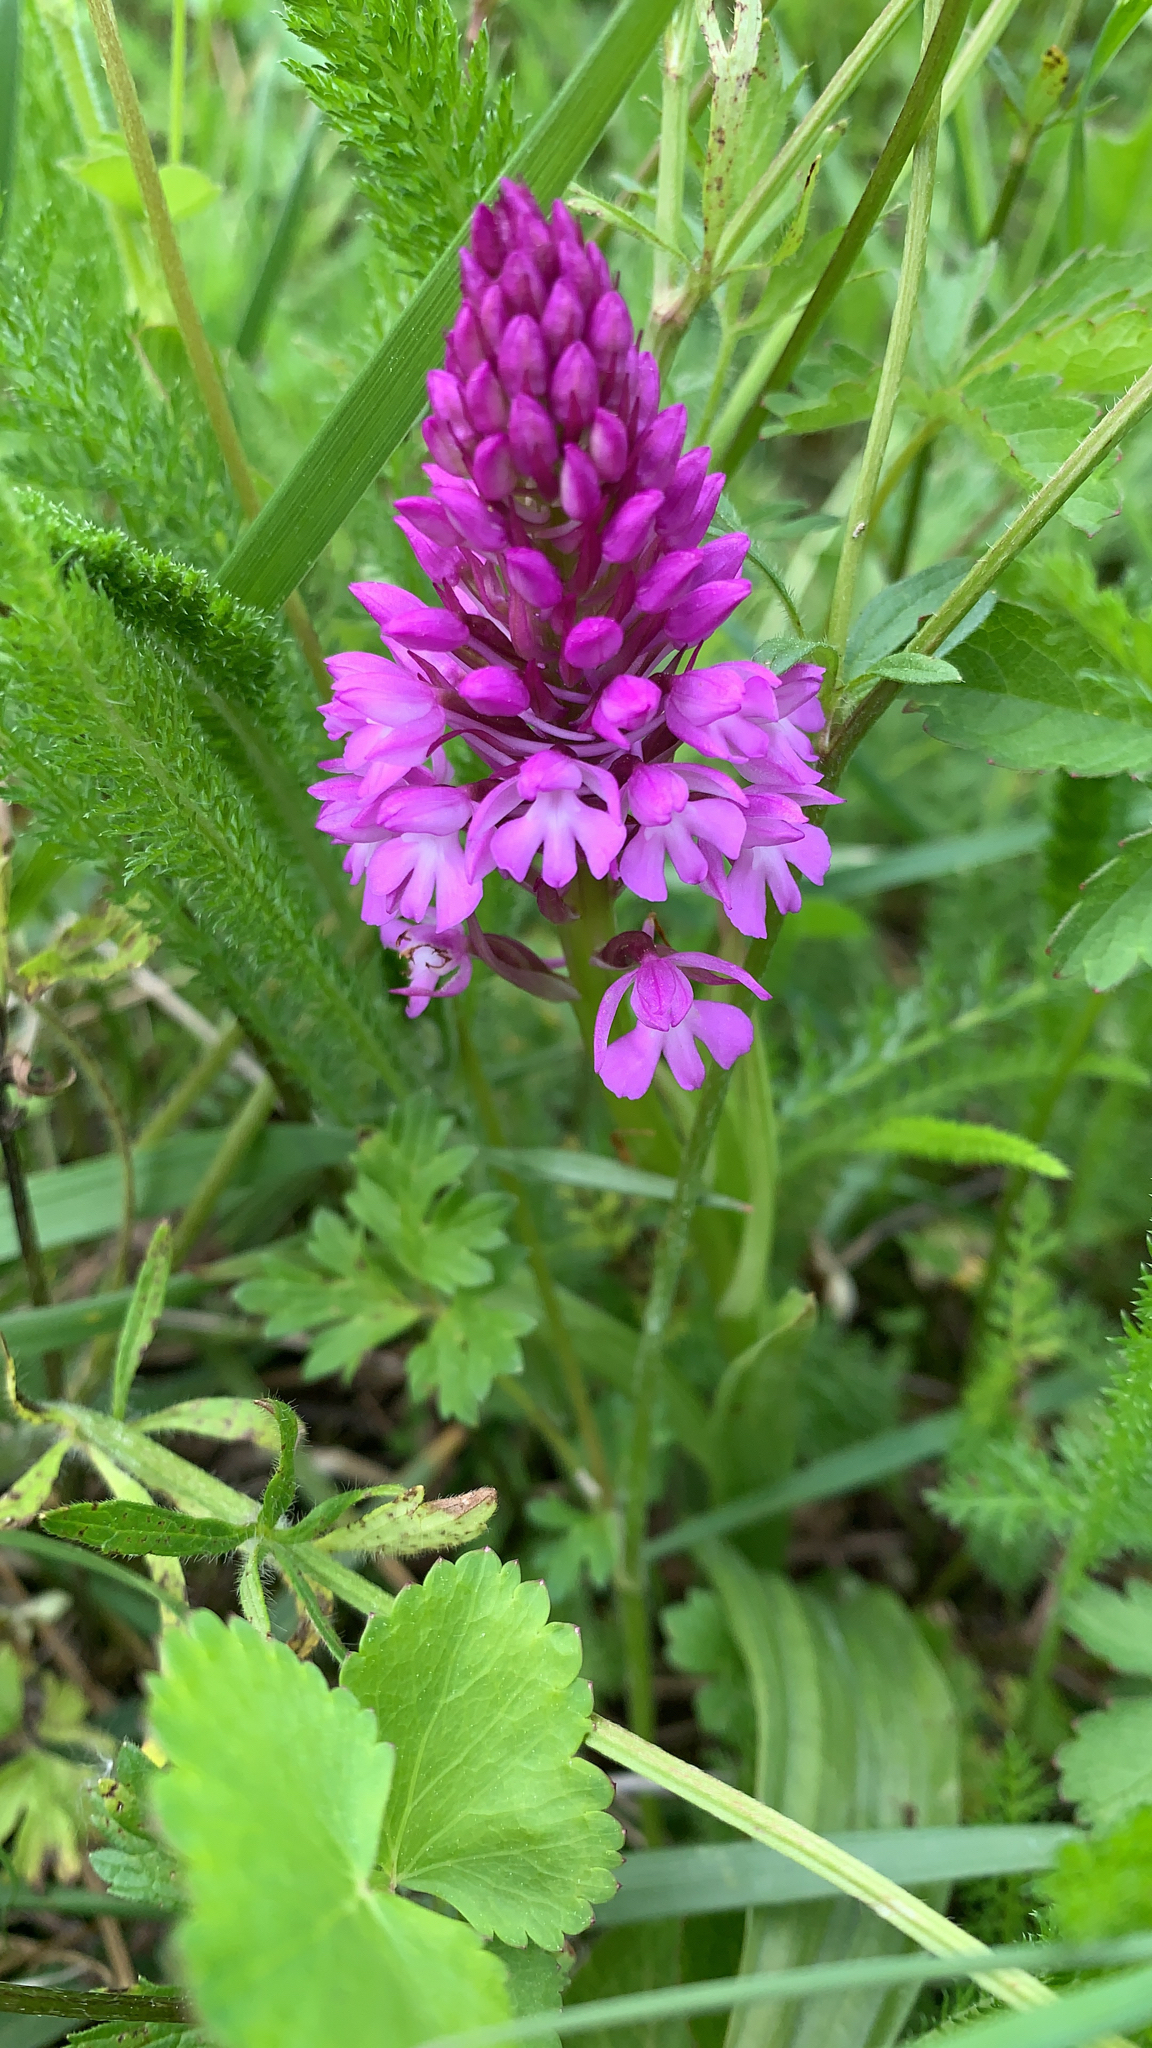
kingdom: Plantae
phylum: Tracheophyta
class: Liliopsida
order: Asparagales
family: Orchidaceae
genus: Anacamptis
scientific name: Anacamptis pyramidalis
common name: Pyramidal orchid
